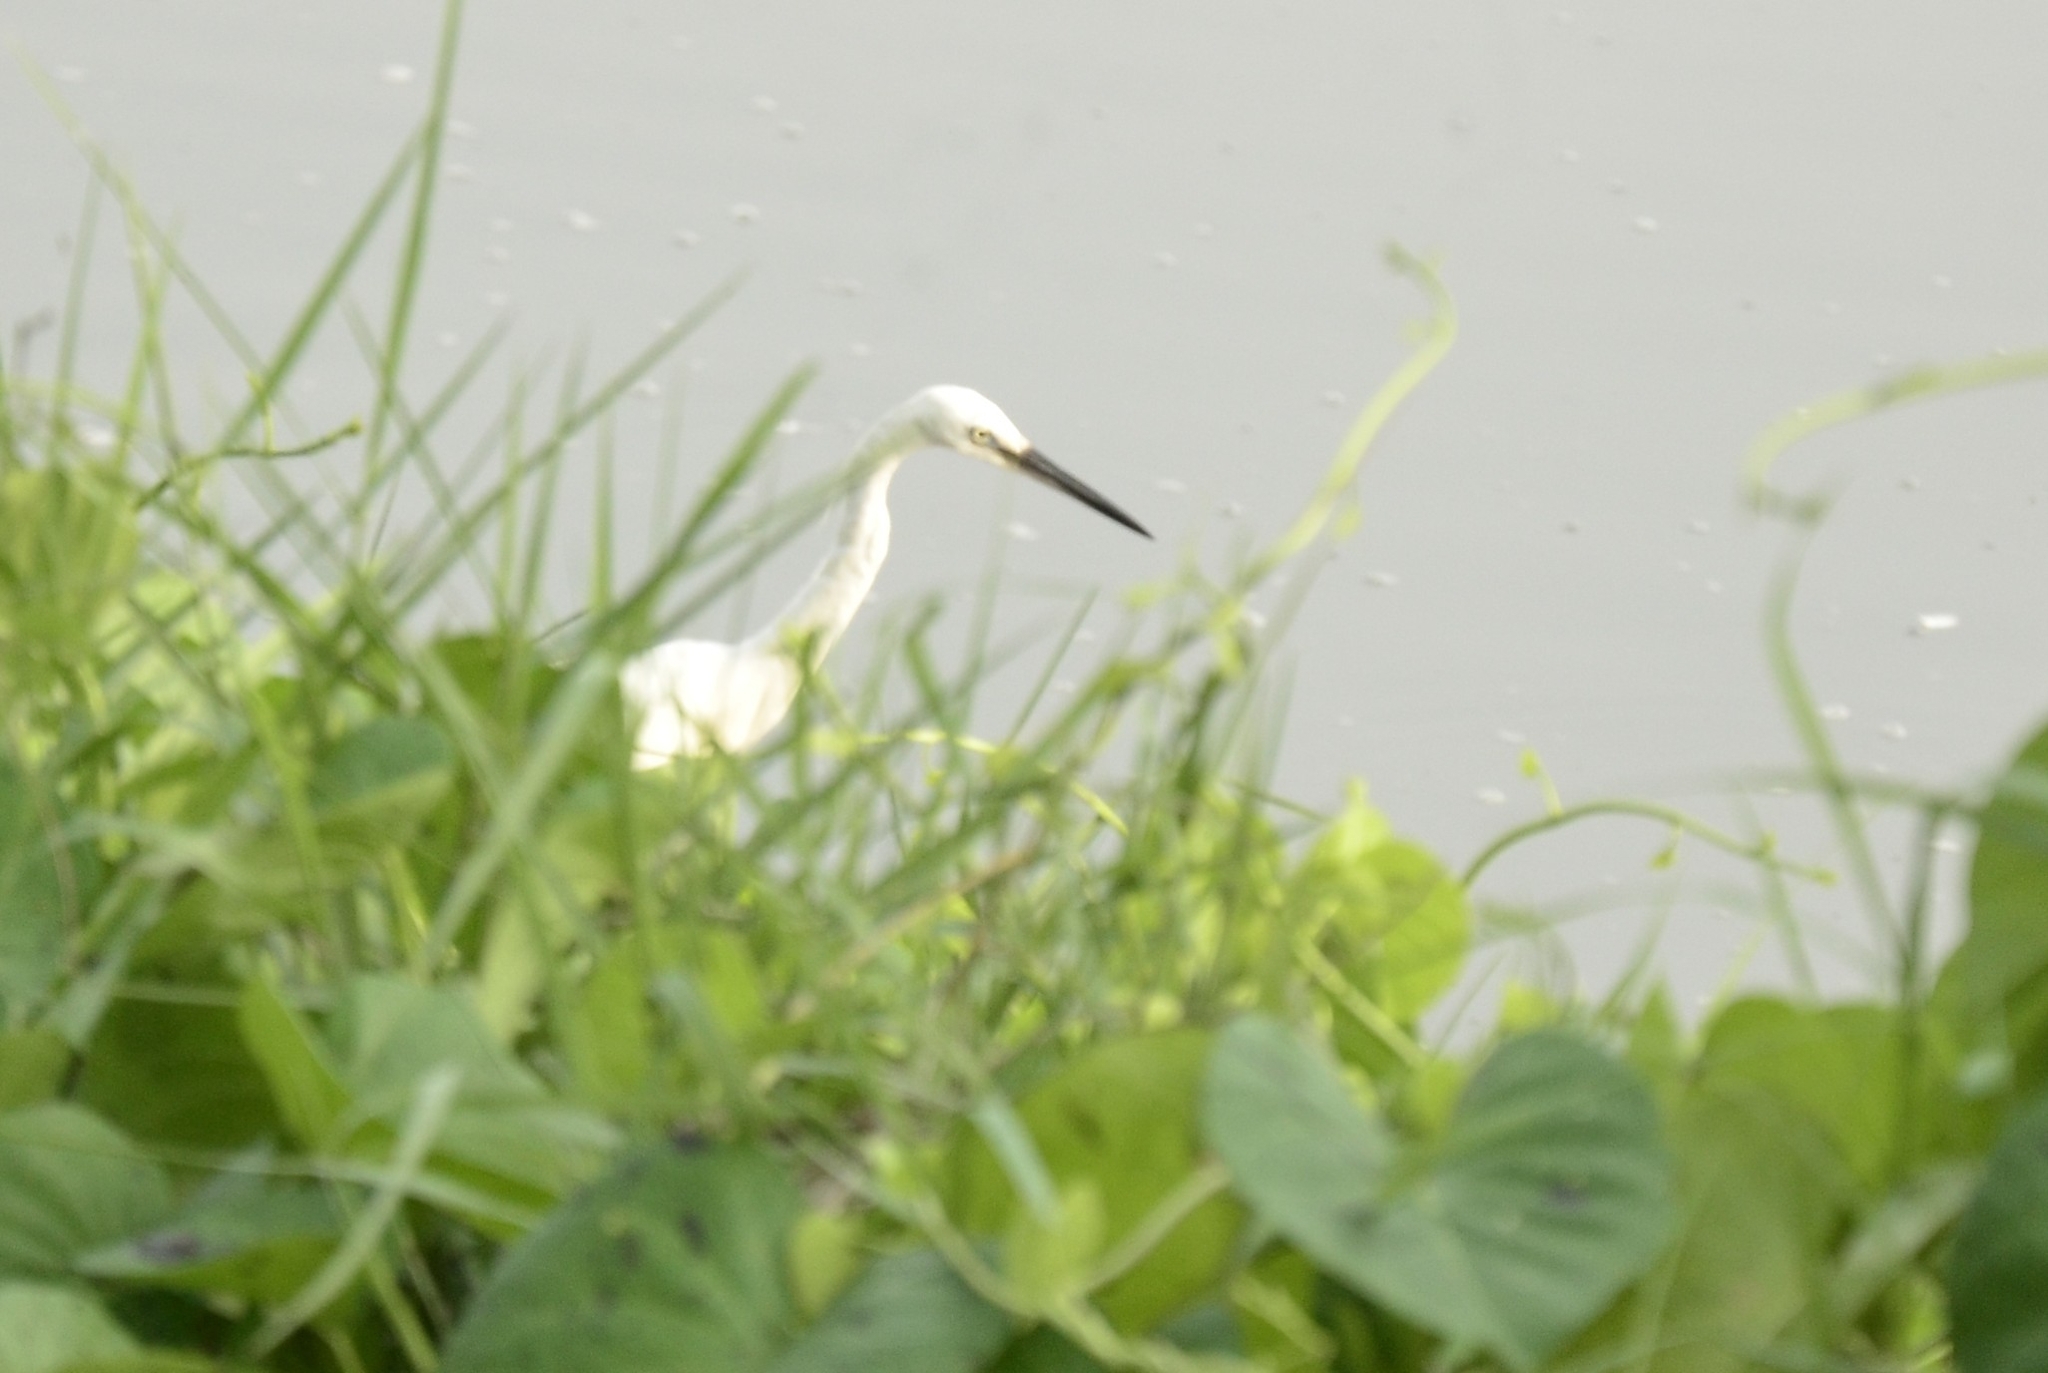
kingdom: Animalia
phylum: Chordata
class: Aves
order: Pelecaniformes
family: Ardeidae
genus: Egretta
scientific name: Egretta garzetta
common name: Little egret
